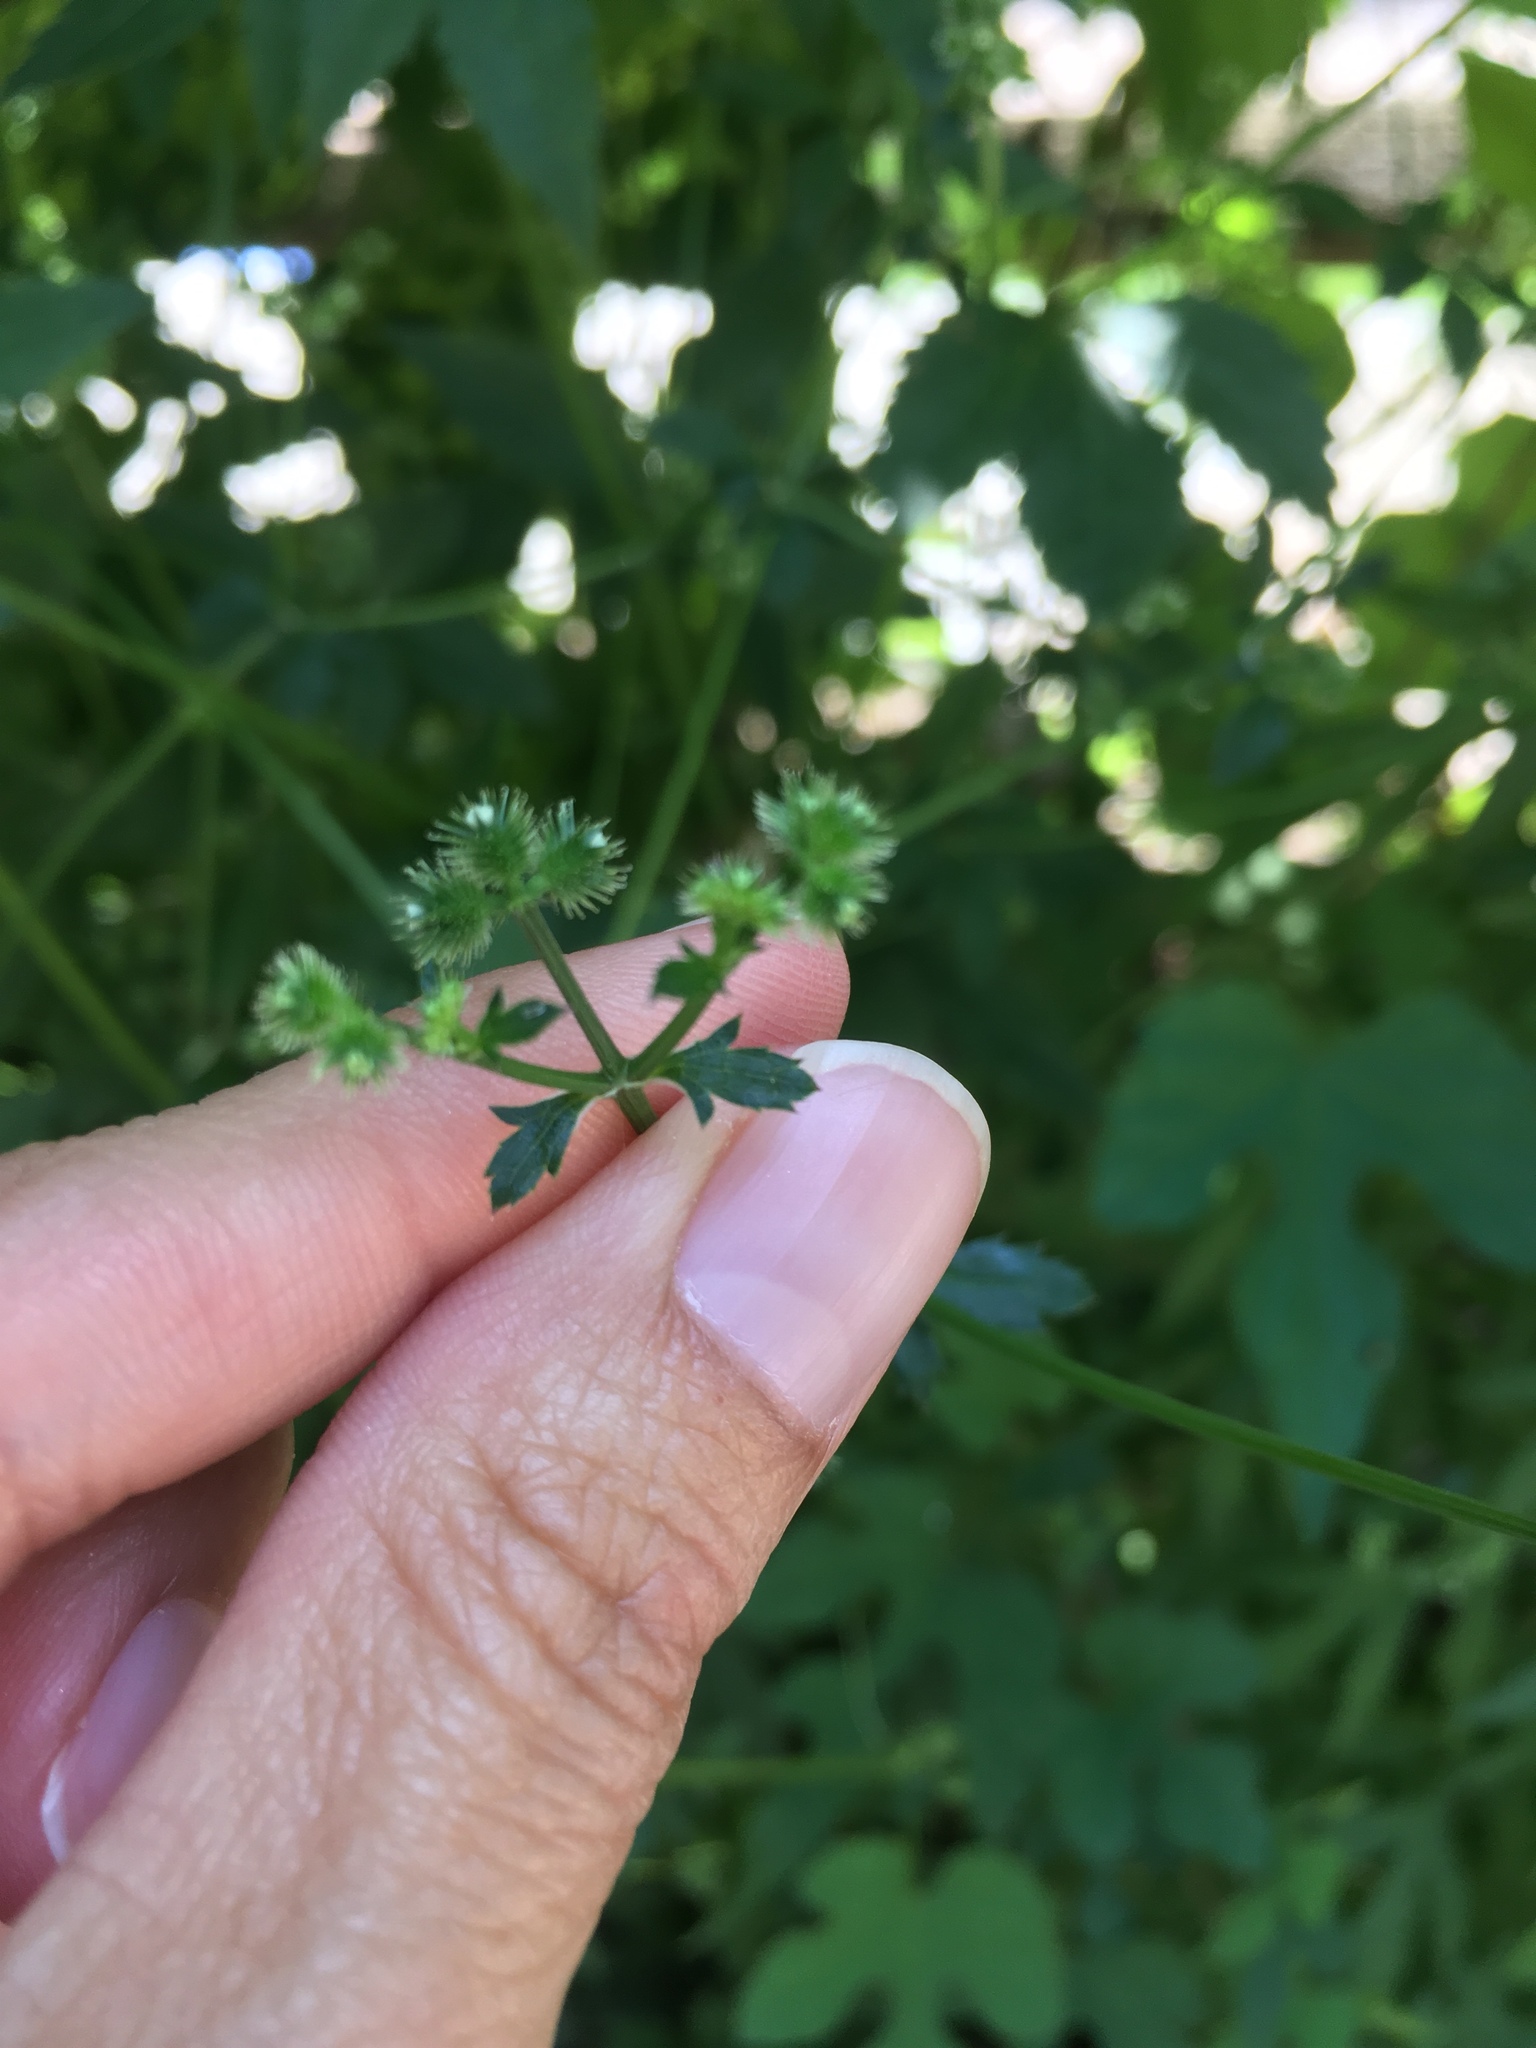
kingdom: Plantae
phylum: Tracheophyta
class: Magnoliopsida
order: Apiales
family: Apiaceae
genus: Sanicula
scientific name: Sanicula canadensis
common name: Canada sanicle
